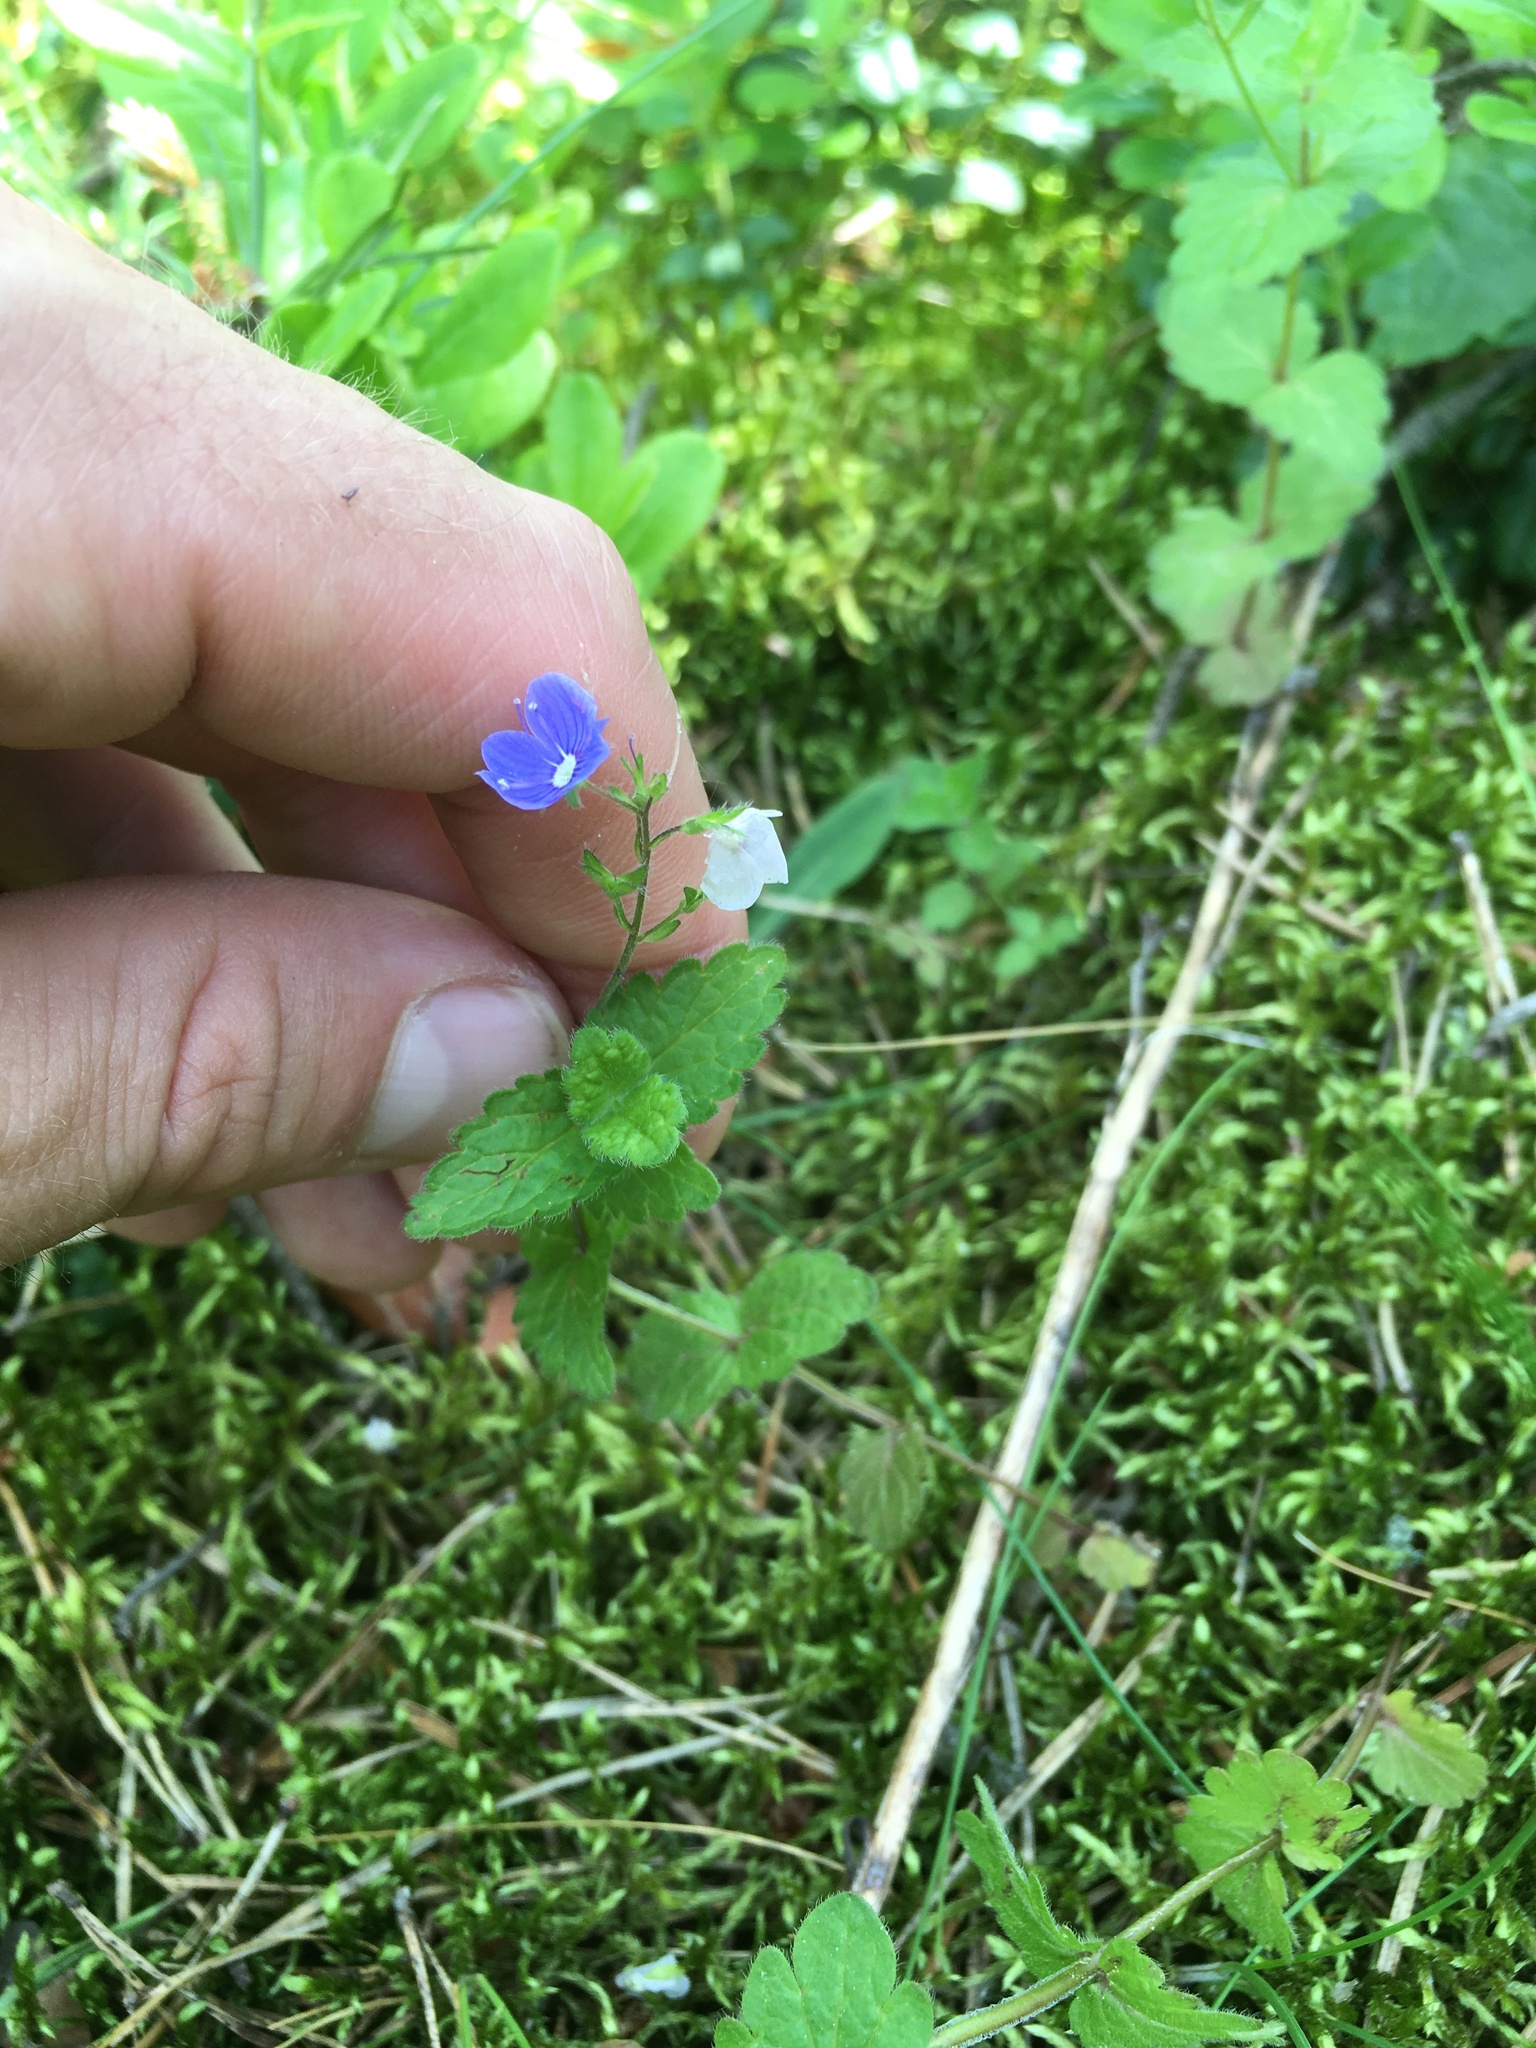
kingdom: Plantae
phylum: Tracheophyta
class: Magnoliopsida
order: Lamiales
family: Plantaginaceae
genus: Veronica
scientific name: Veronica chamaedrys
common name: Germander speedwell
